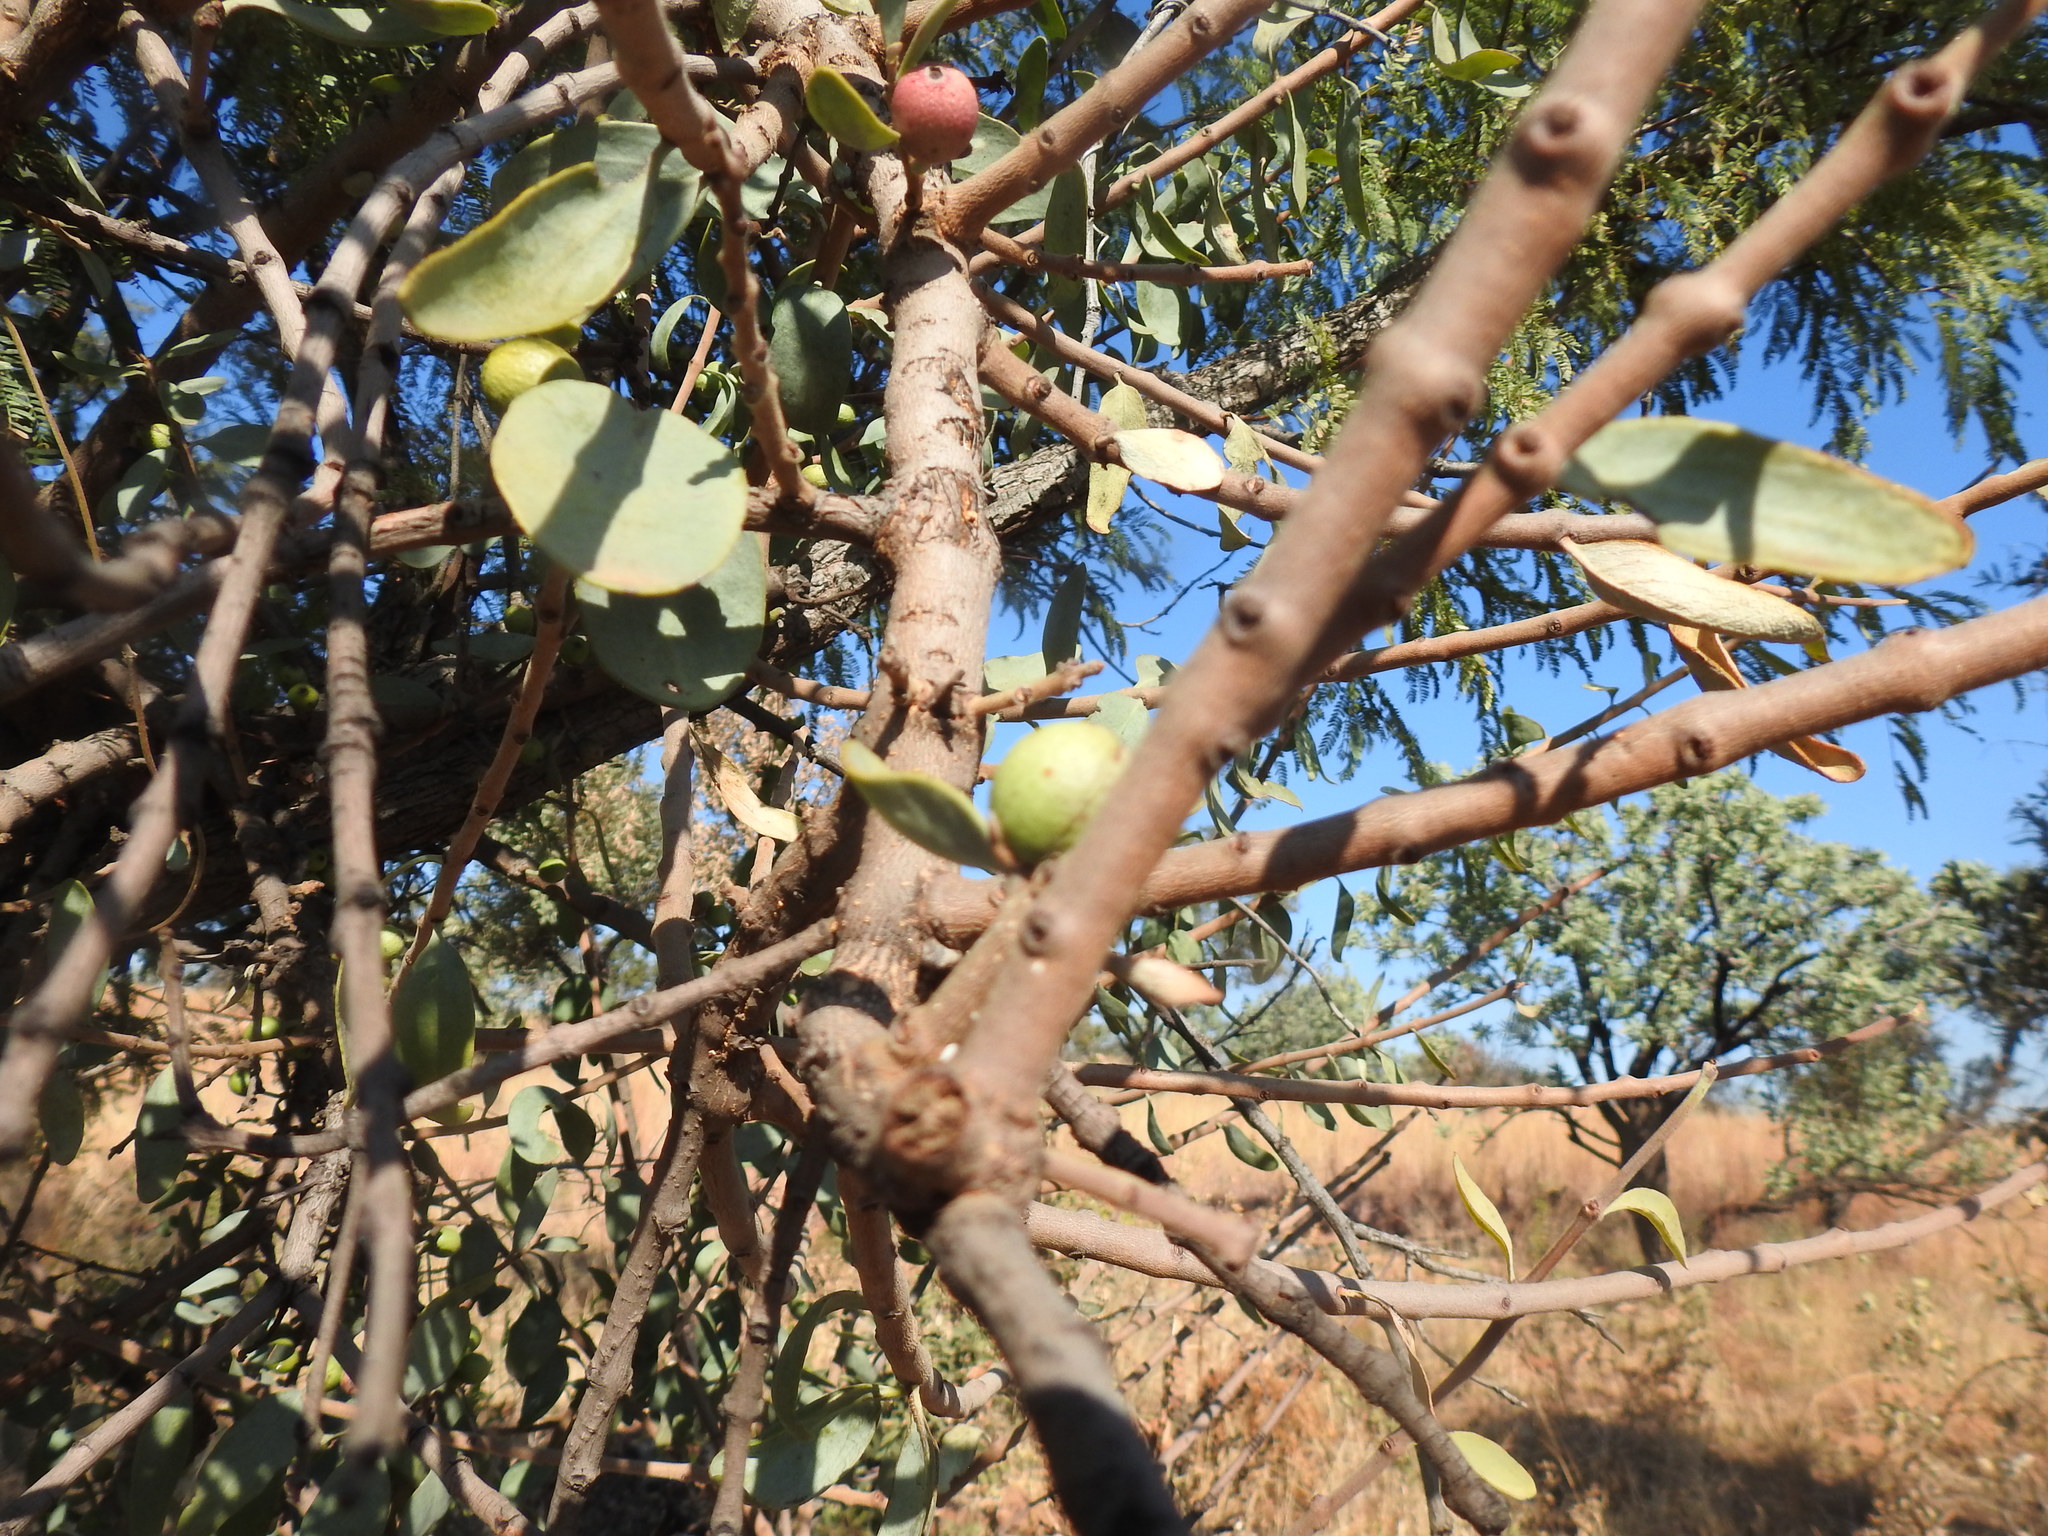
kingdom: Plantae
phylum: Tracheophyta
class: Magnoliopsida
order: Santalales
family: Loranthaceae
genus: Agelanthus
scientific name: Agelanthus natalitius
